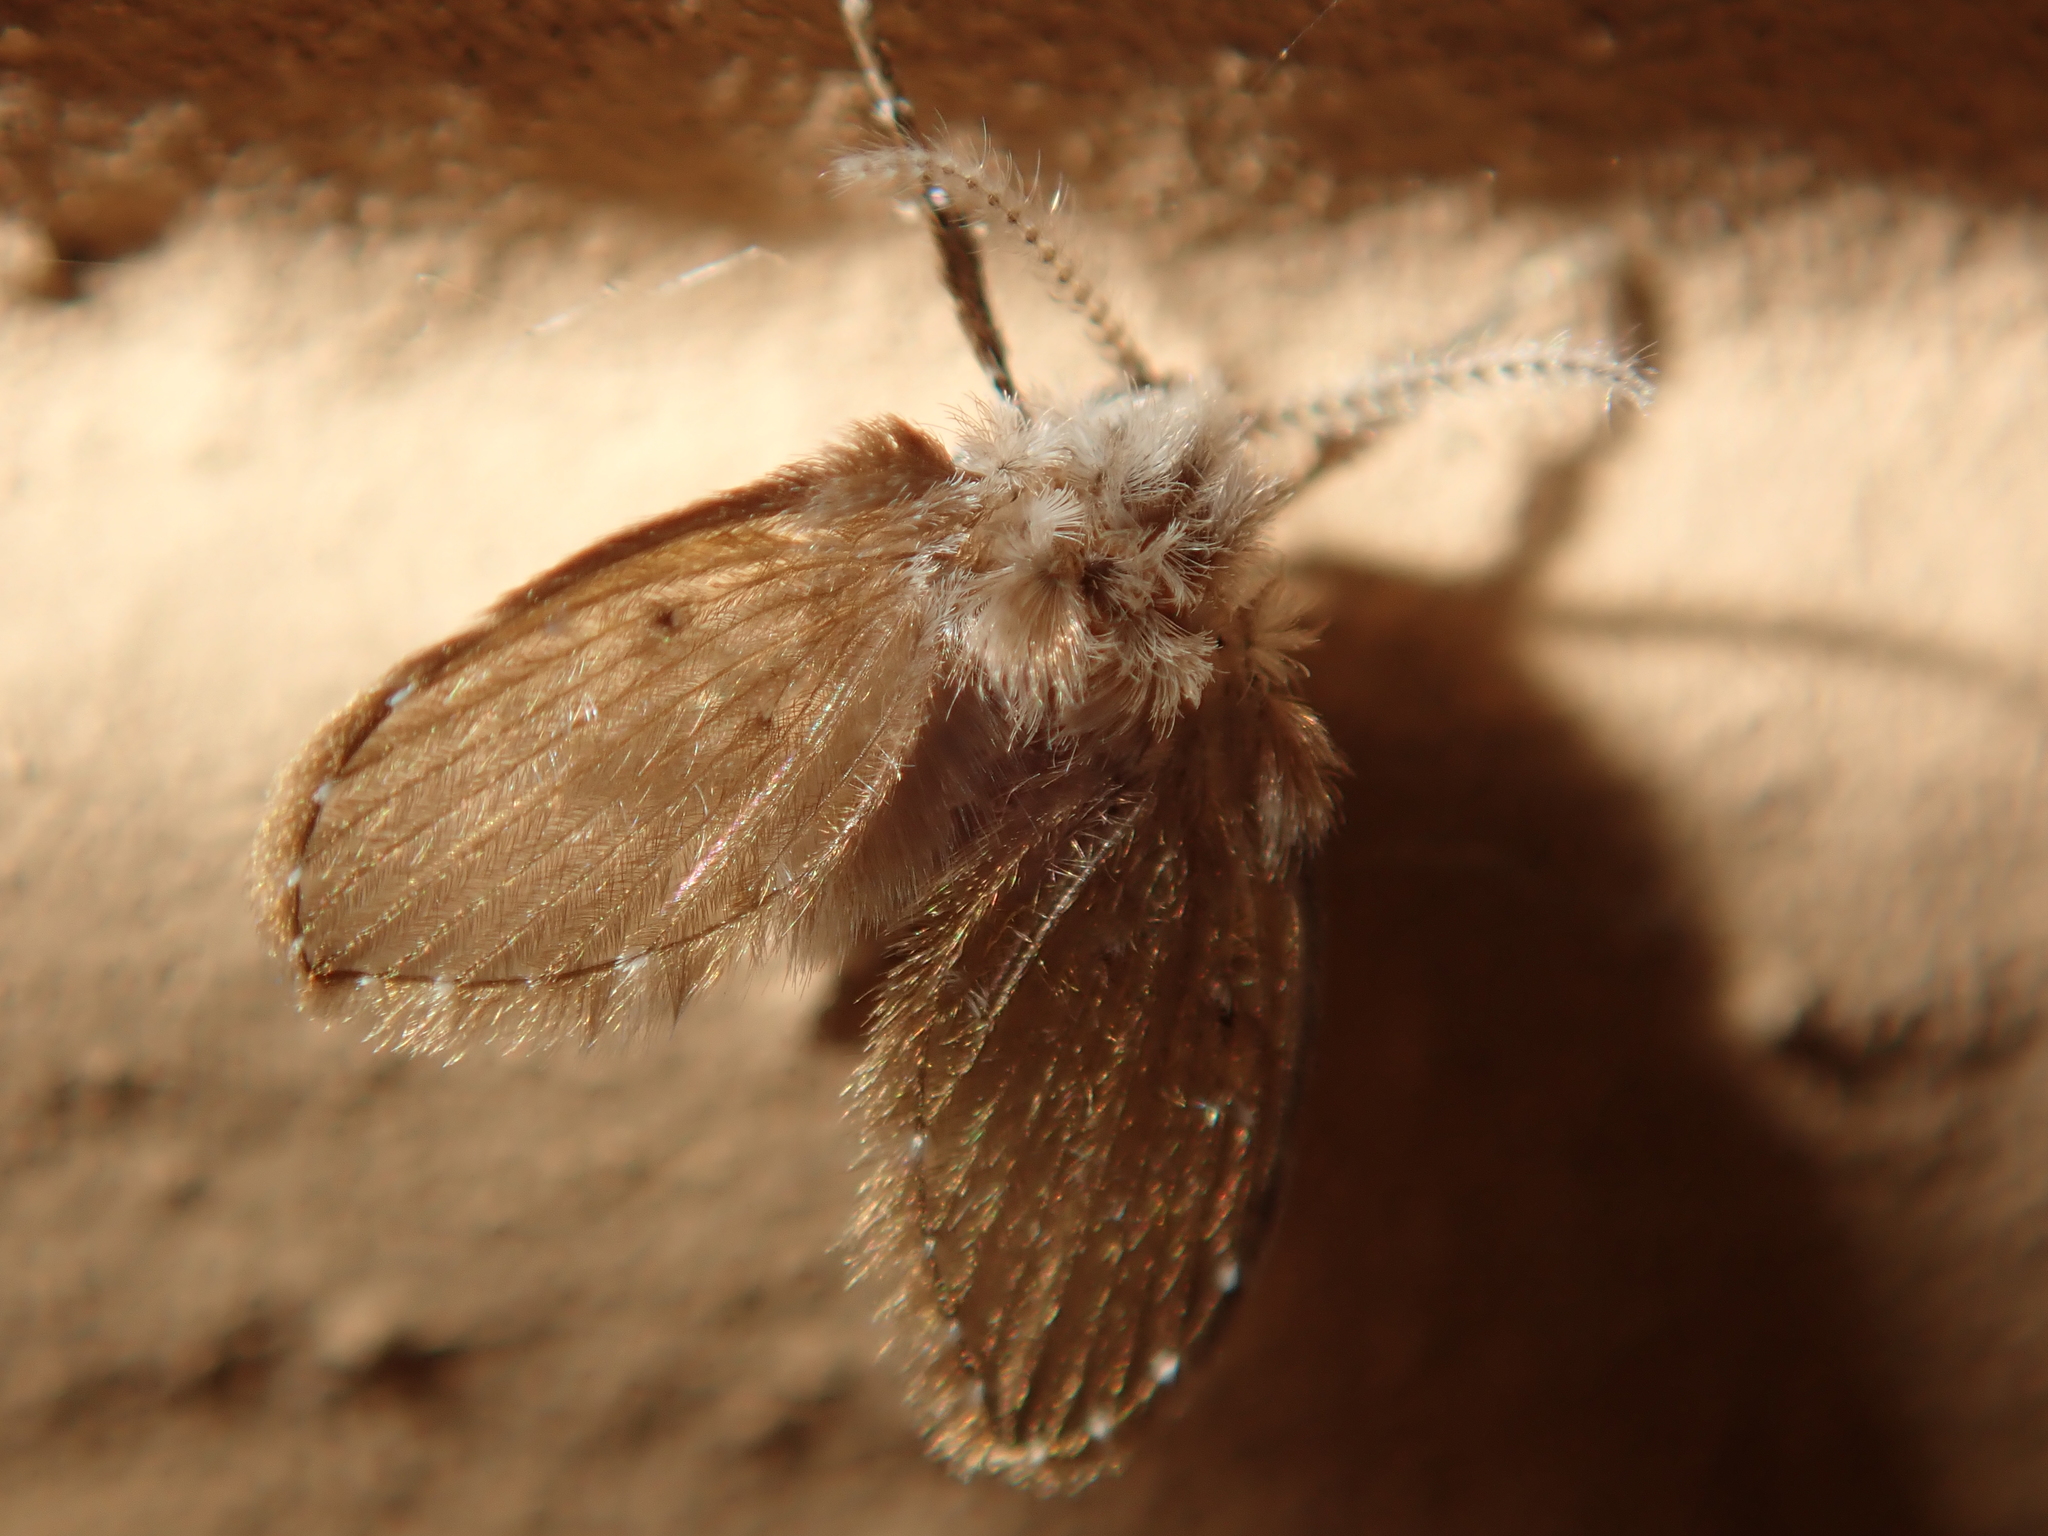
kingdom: Animalia
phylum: Arthropoda
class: Insecta
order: Diptera
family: Psychodidae
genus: Clogmia
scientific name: Clogmia albipunctatus
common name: White-spotted moth fly
